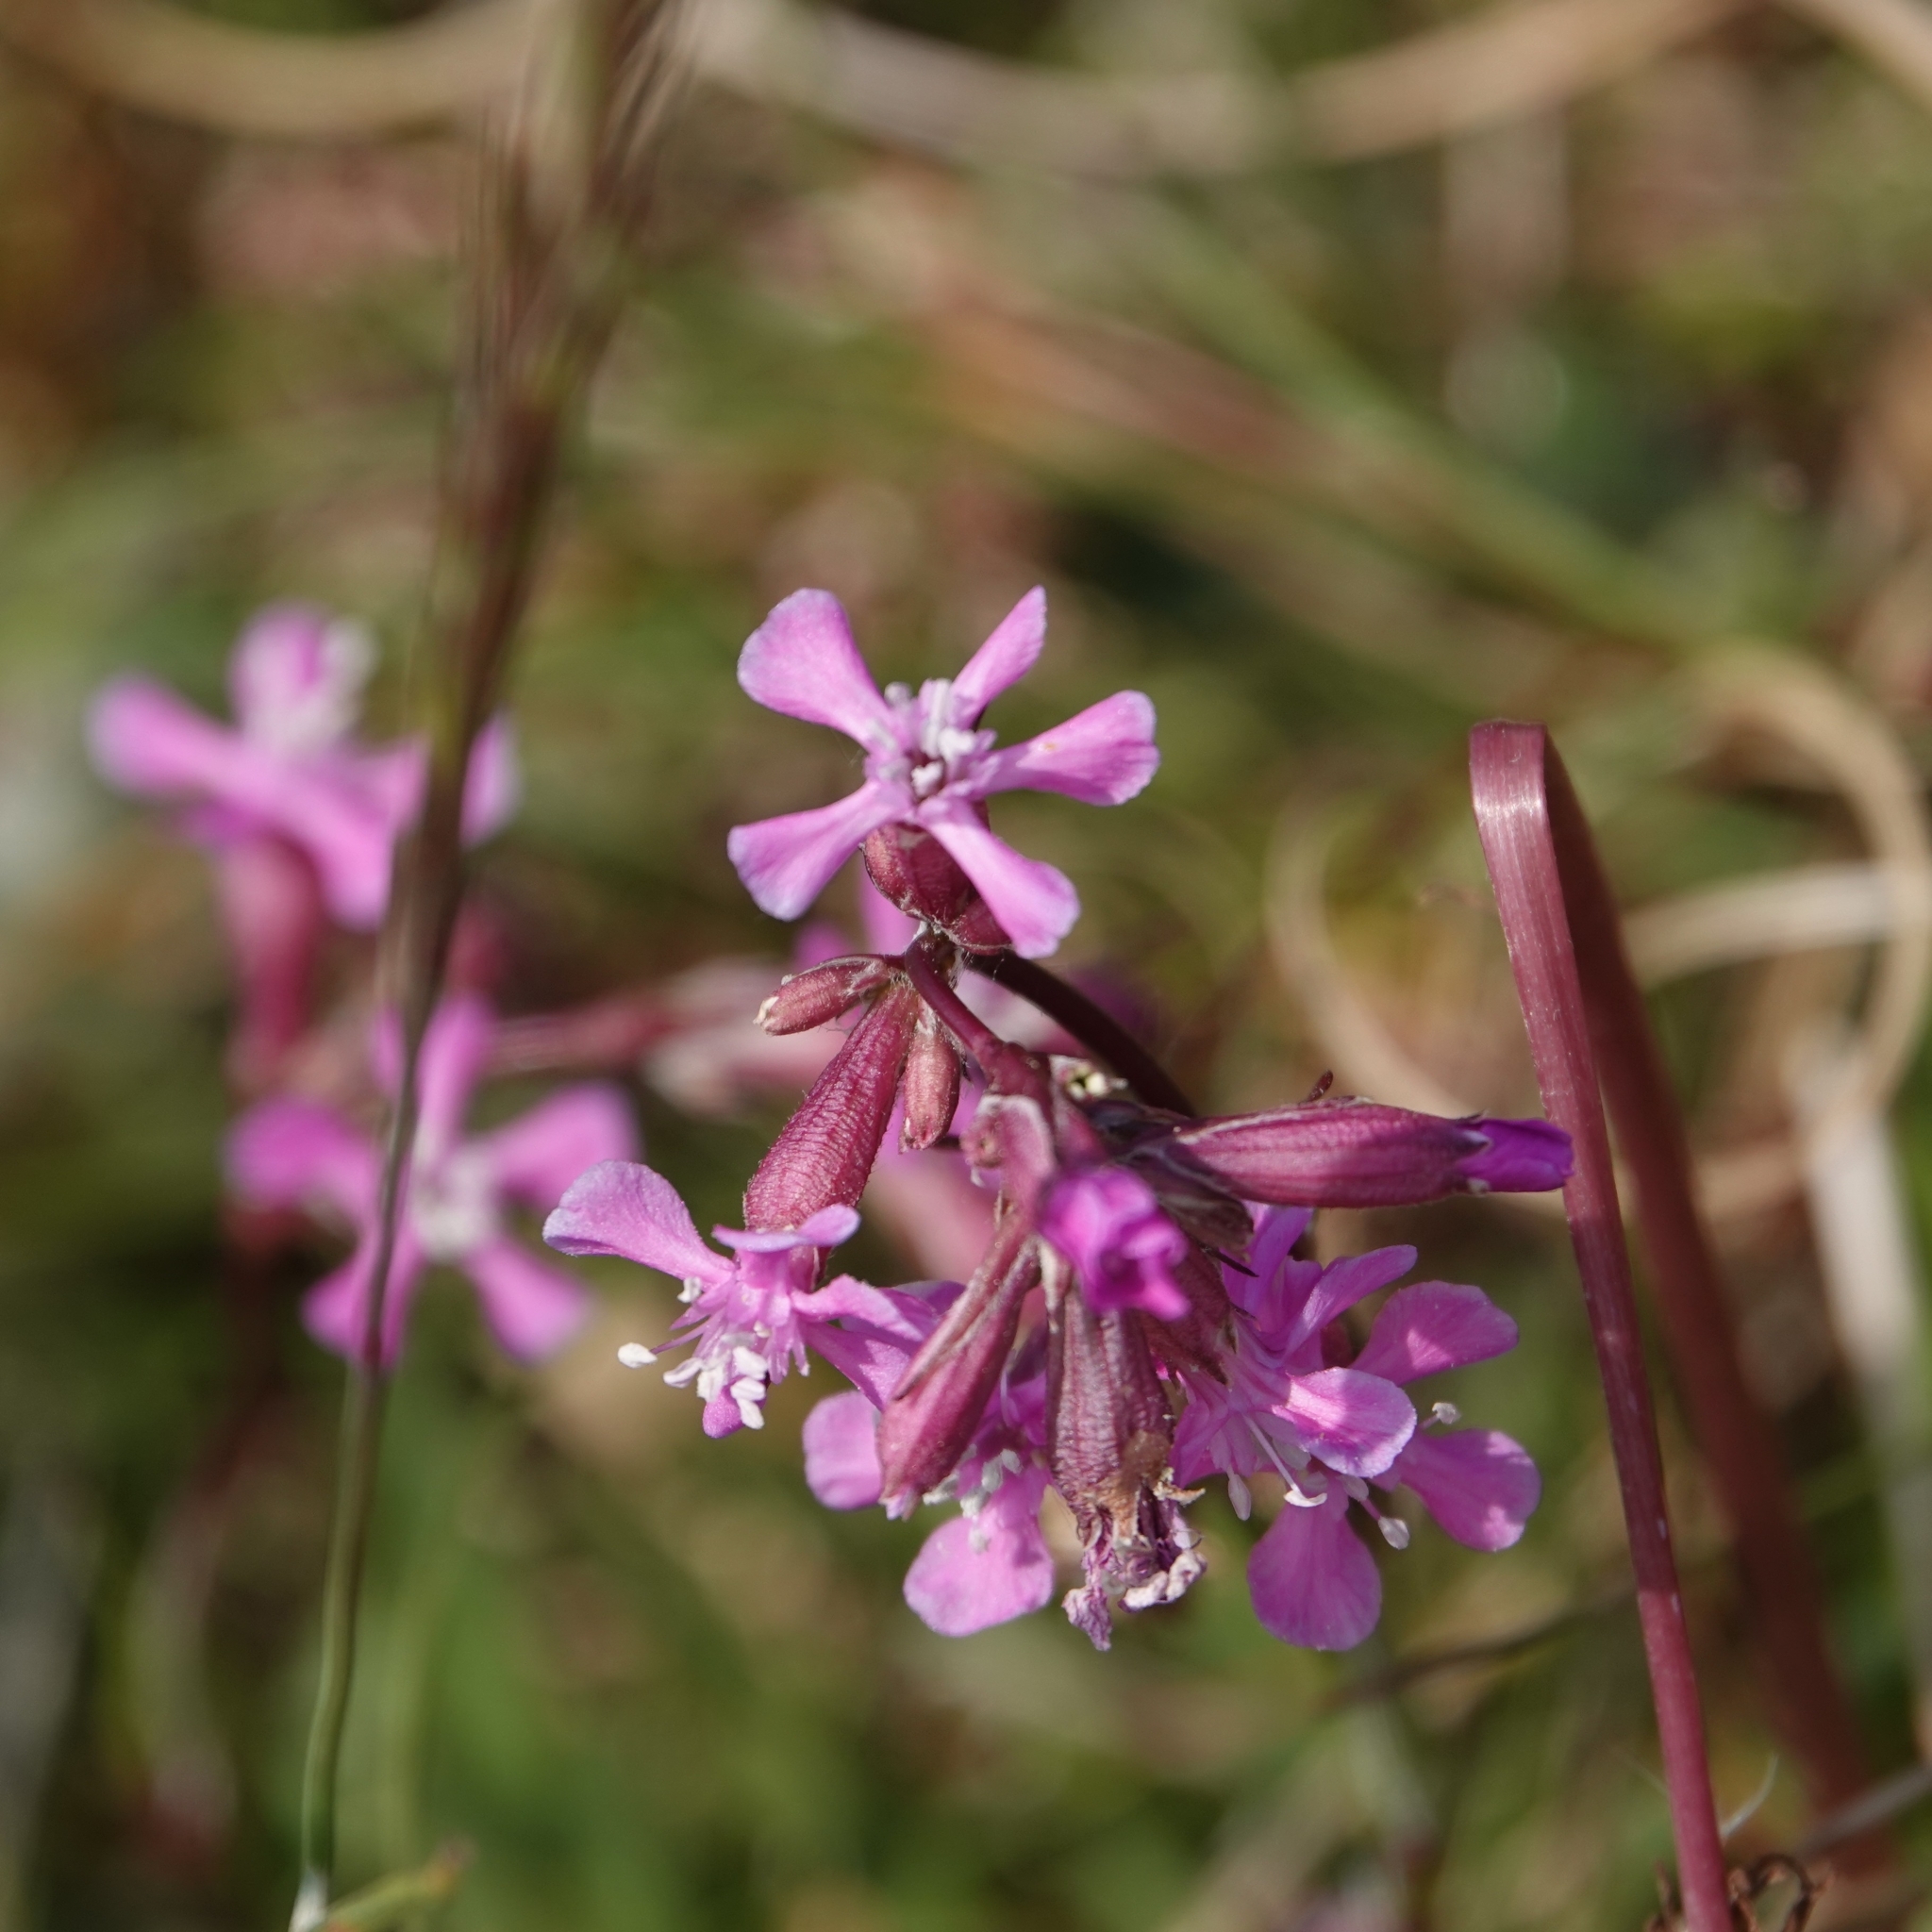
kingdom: Plantae
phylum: Tracheophyta
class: Magnoliopsida
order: Caryophyllales
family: Caryophyllaceae
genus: Viscaria
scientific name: Viscaria vulgaris
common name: Clammy campion
